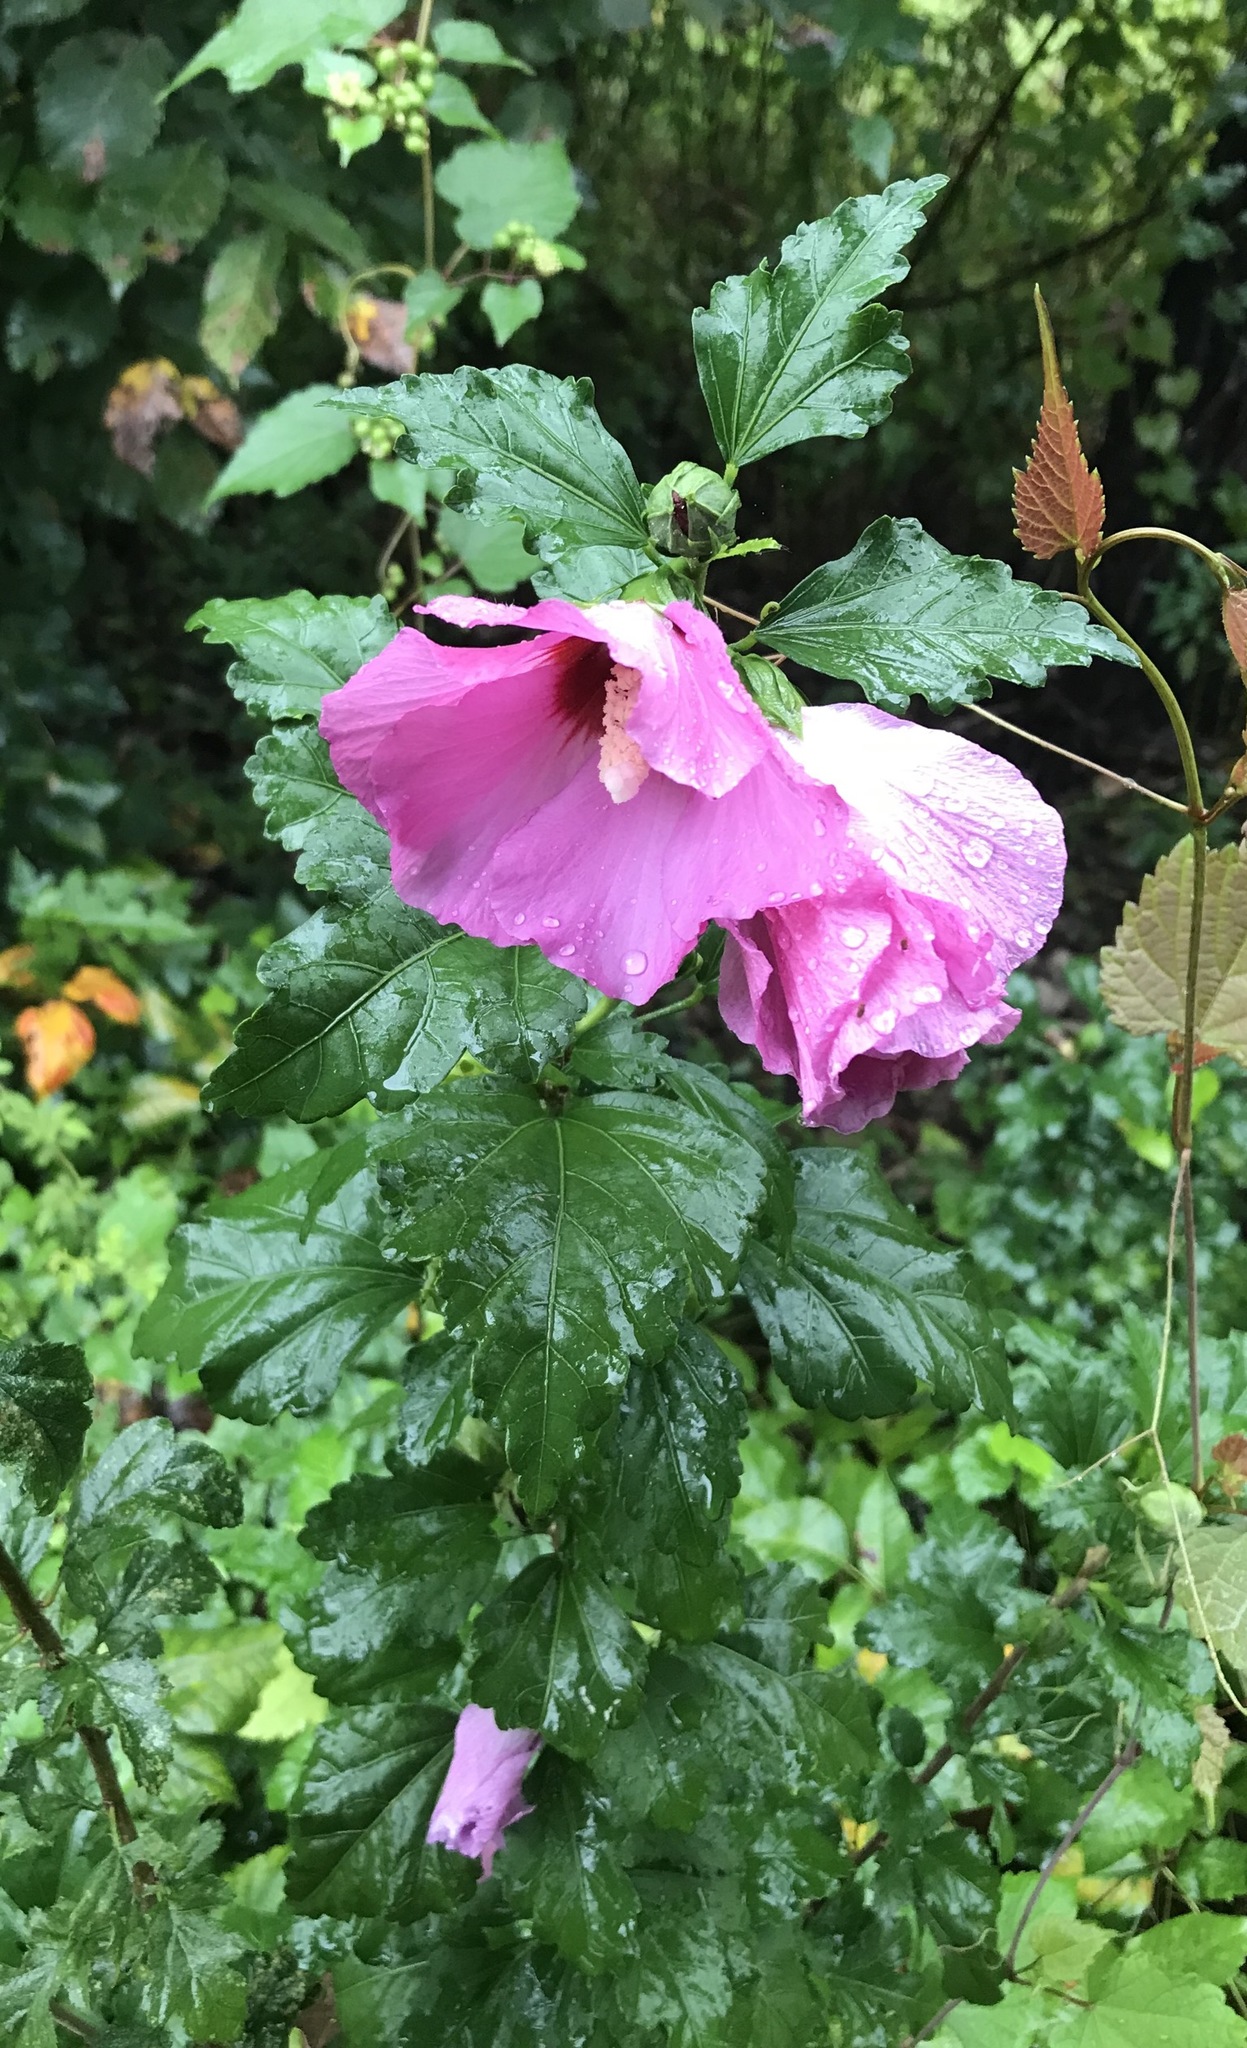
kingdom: Plantae
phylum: Tracheophyta
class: Magnoliopsida
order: Malvales
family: Malvaceae
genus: Hibiscus
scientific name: Hibiscus syriacus
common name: Syrian ketmia
